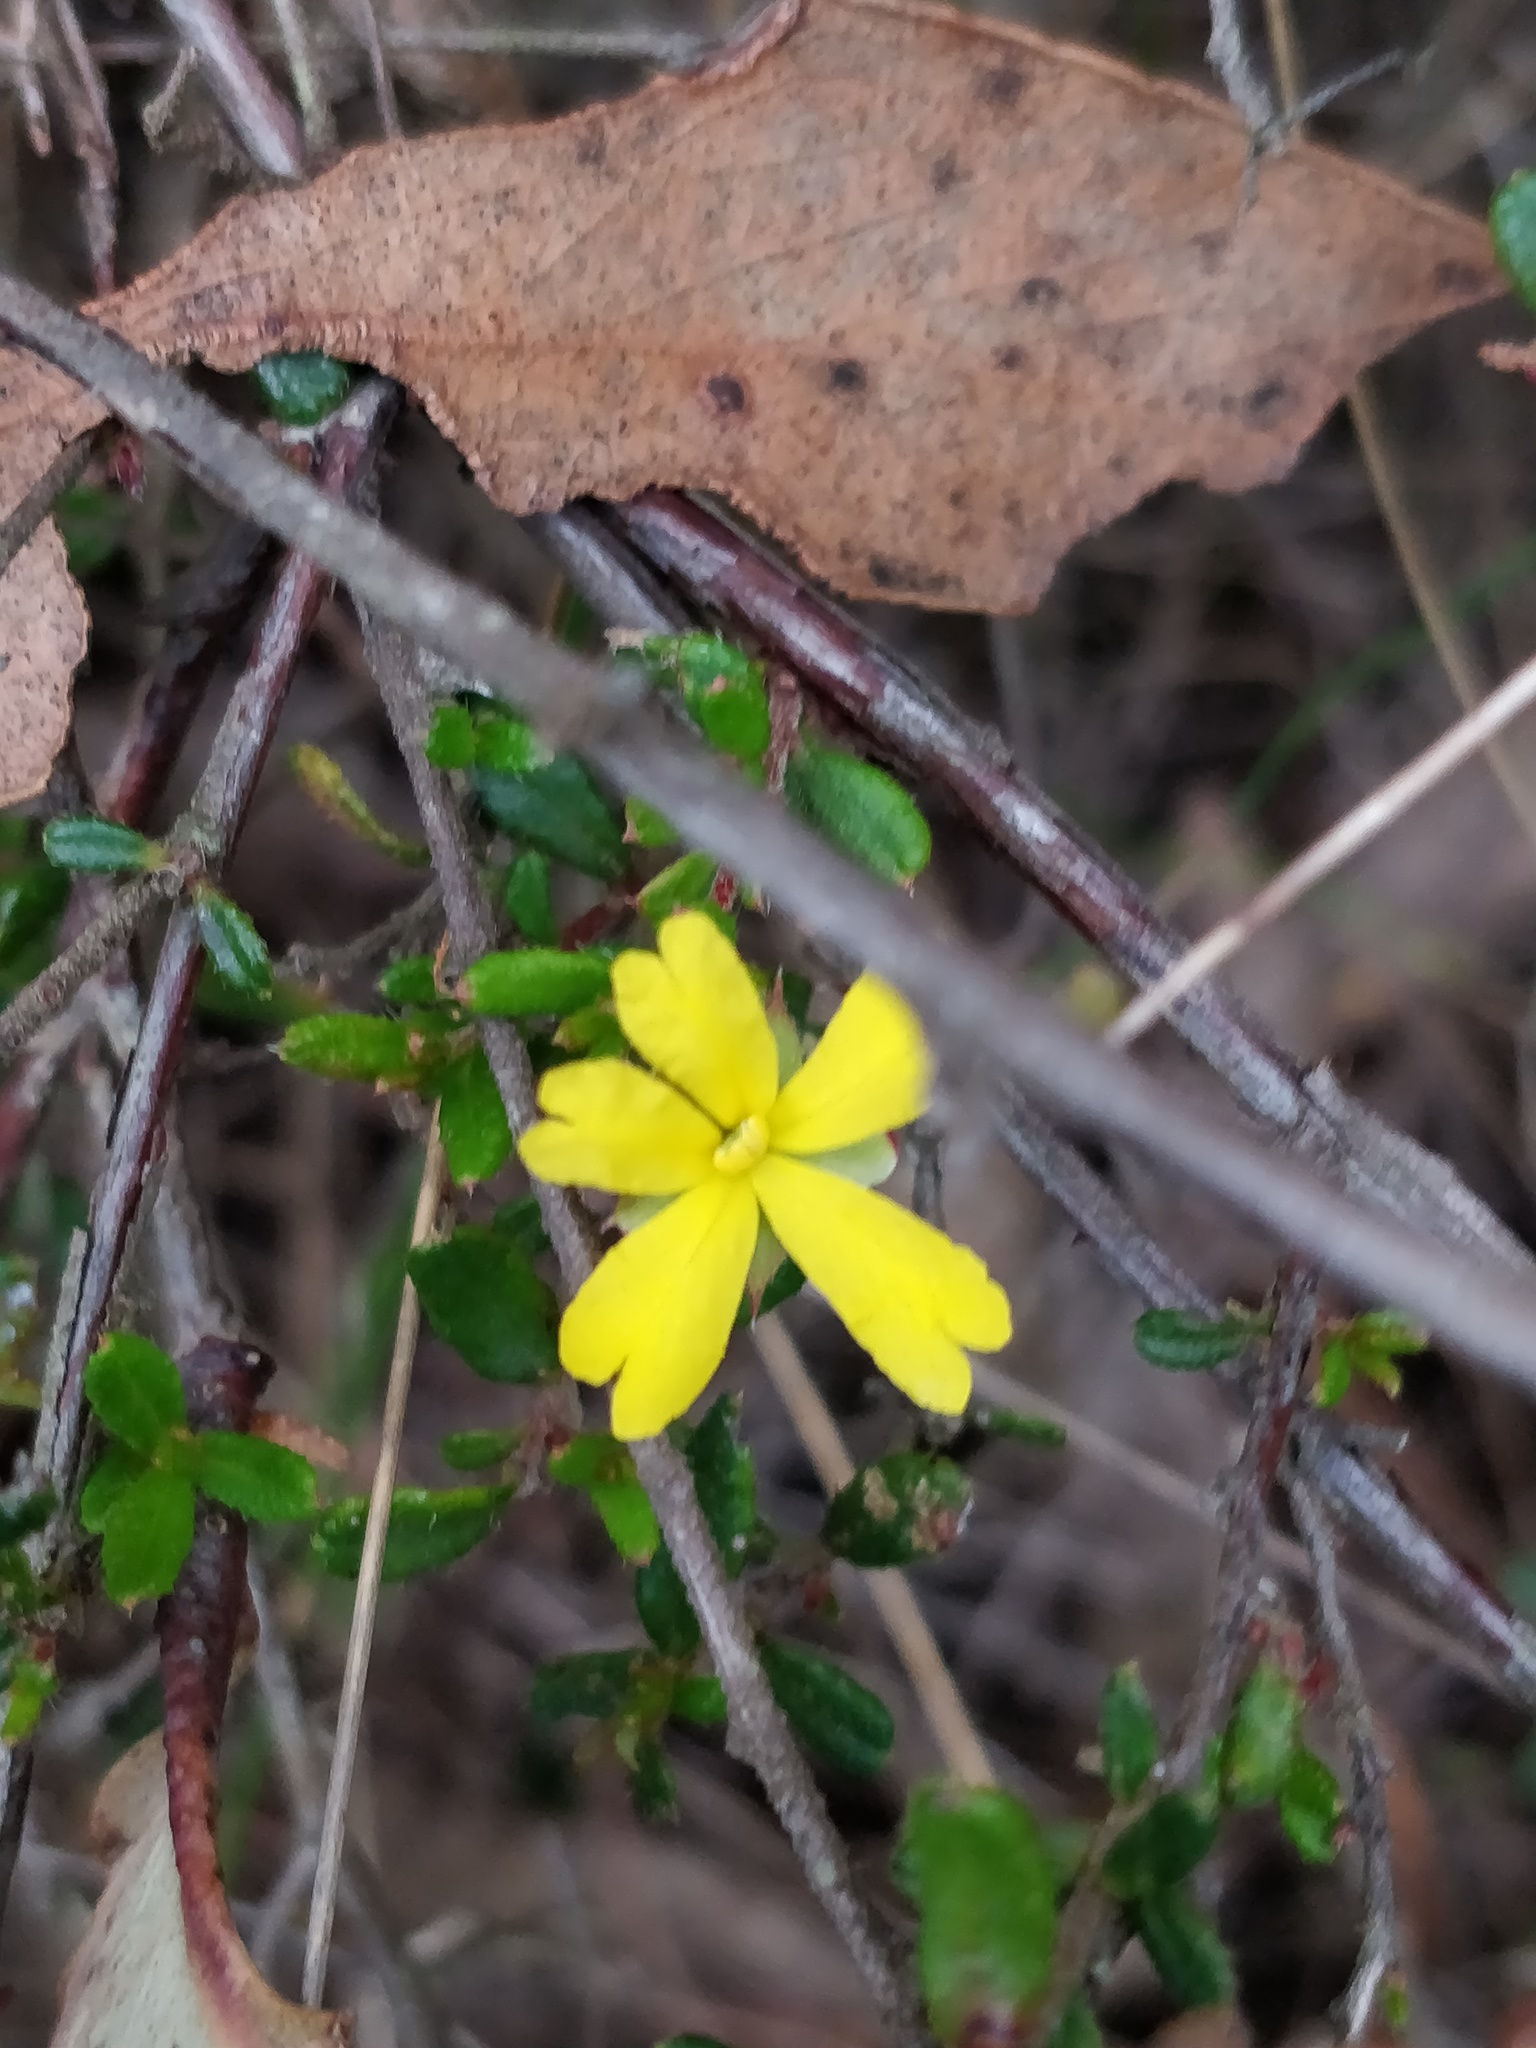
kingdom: Plantae
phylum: Tracheophyta
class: Magnoliopsida
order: Dilleniales
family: Dilleniaceae
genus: Hibbertia
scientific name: Hibbertia empetrifolia
